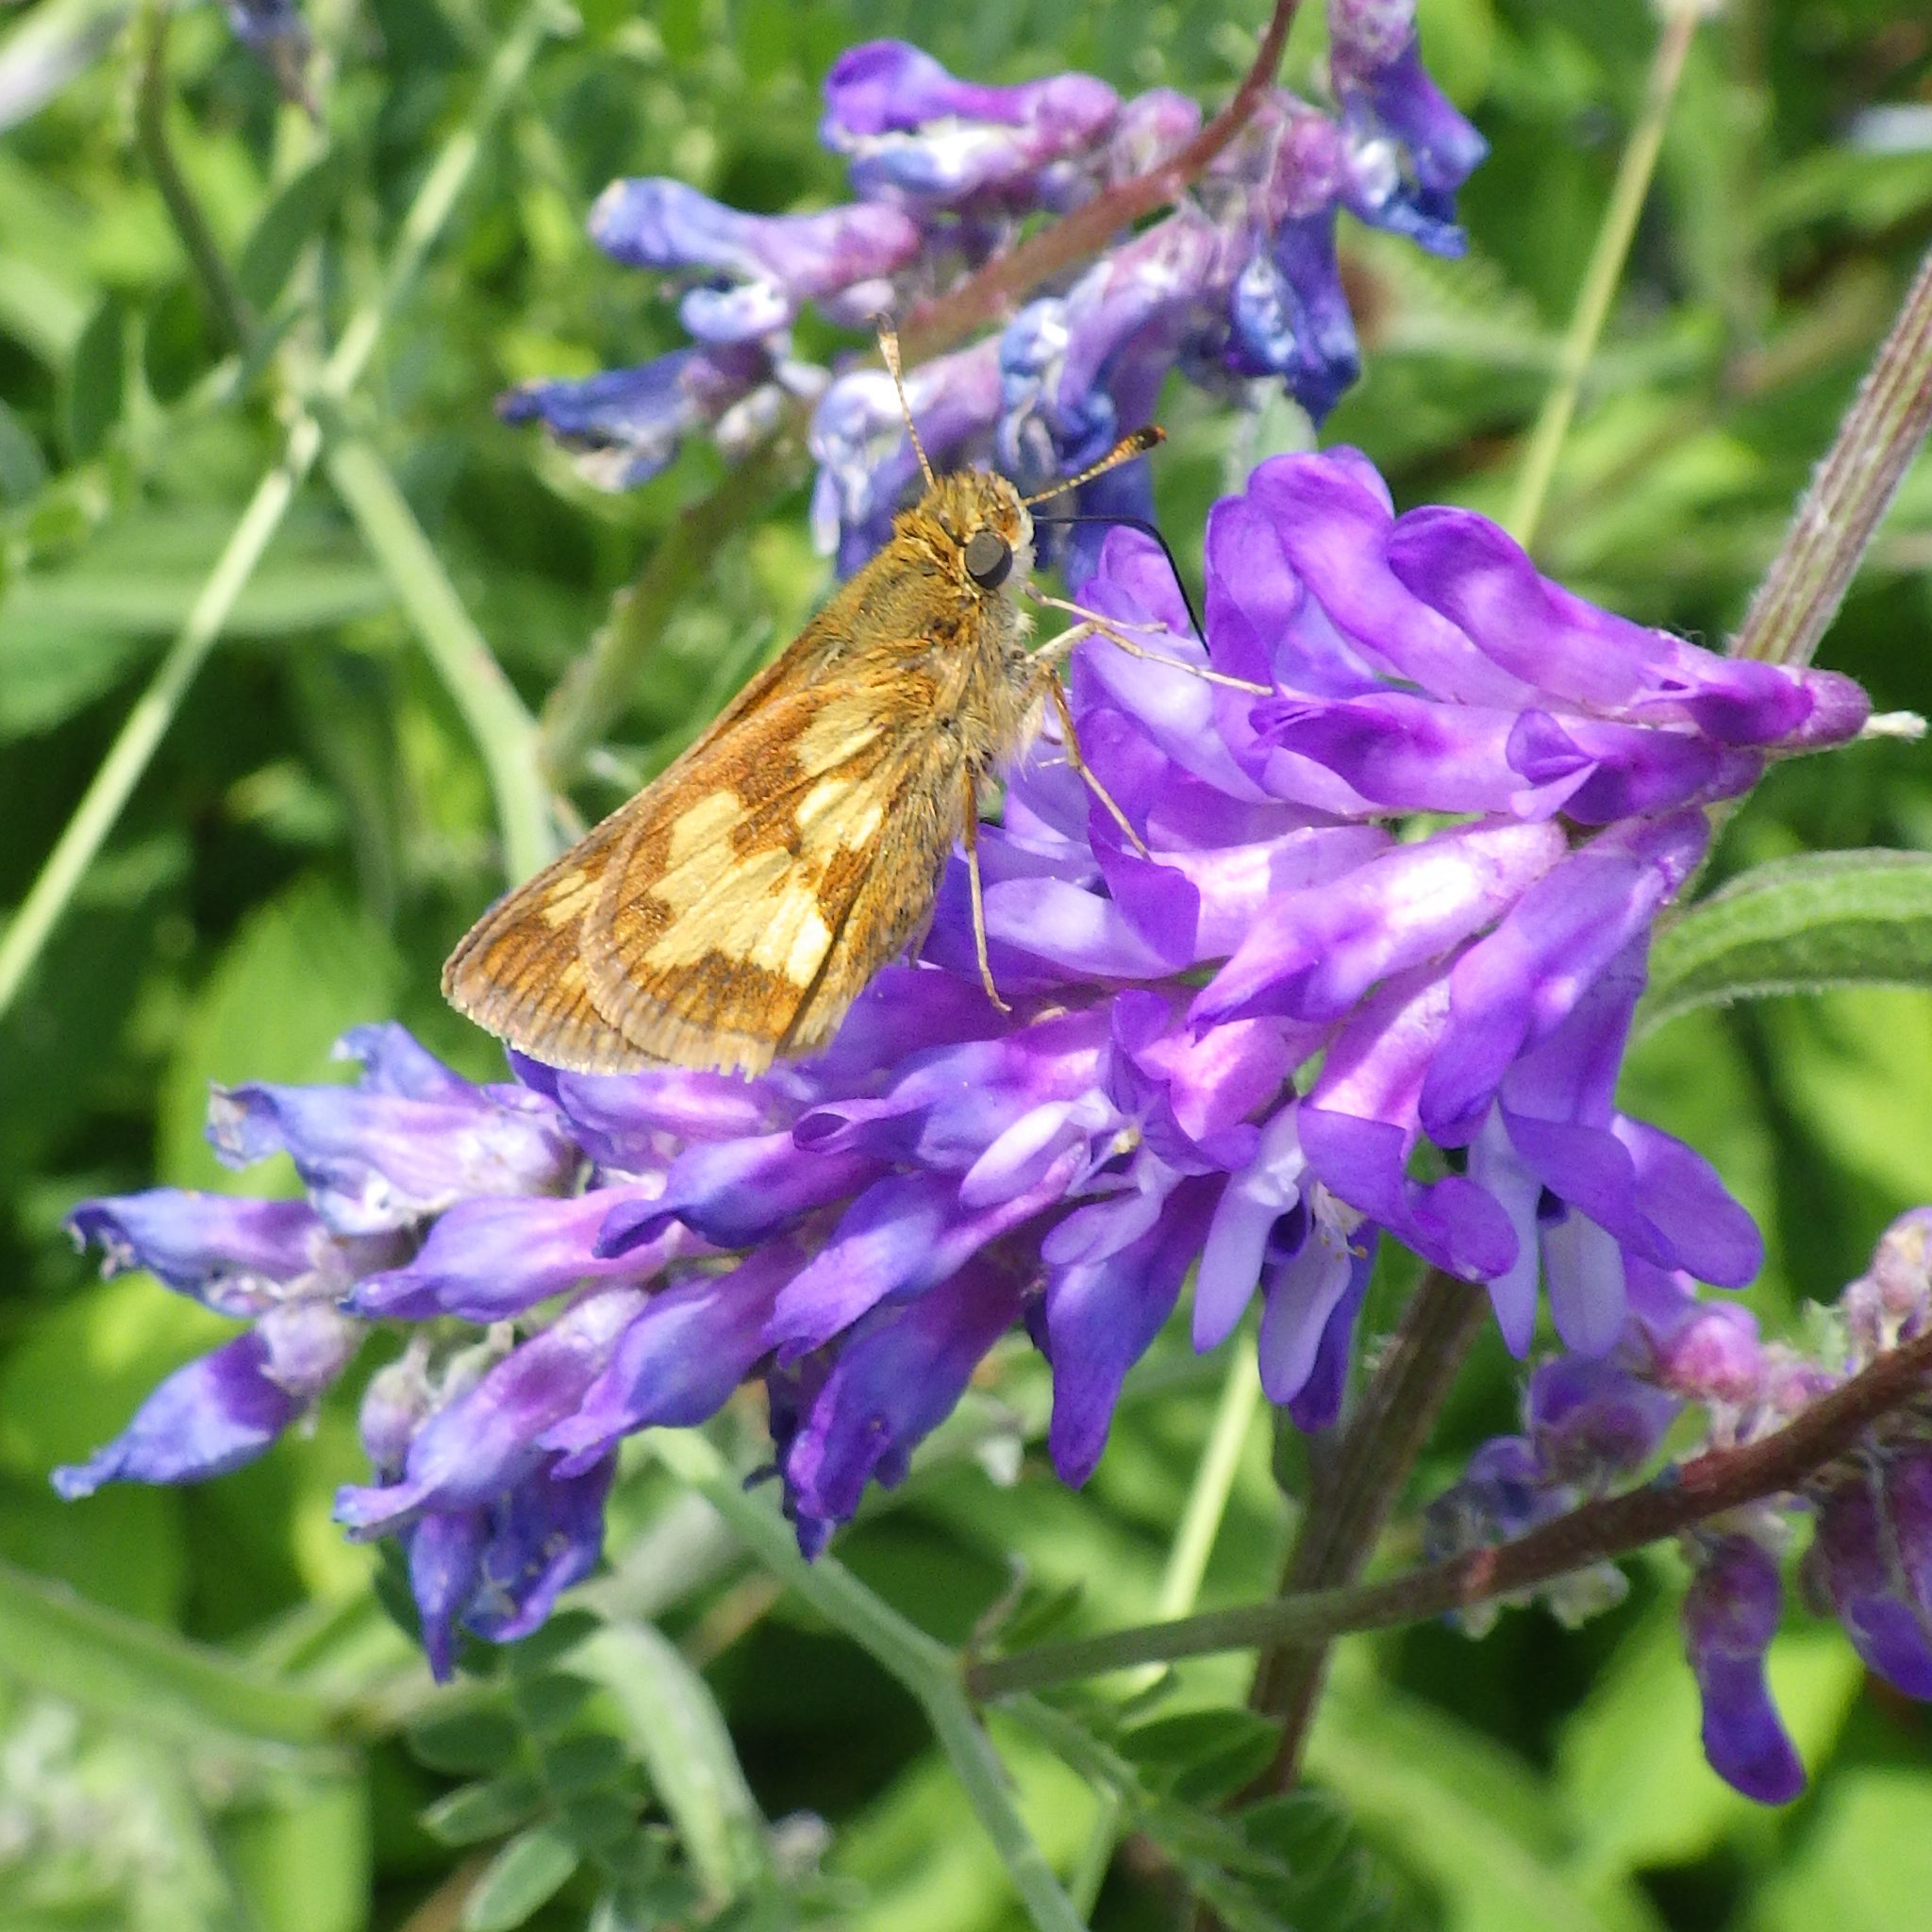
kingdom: Animalia
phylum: Arthropoda
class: Insecta
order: Lepidoptera
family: Hesperiidae
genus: Polites
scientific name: Polites coras
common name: Peck's skipper
